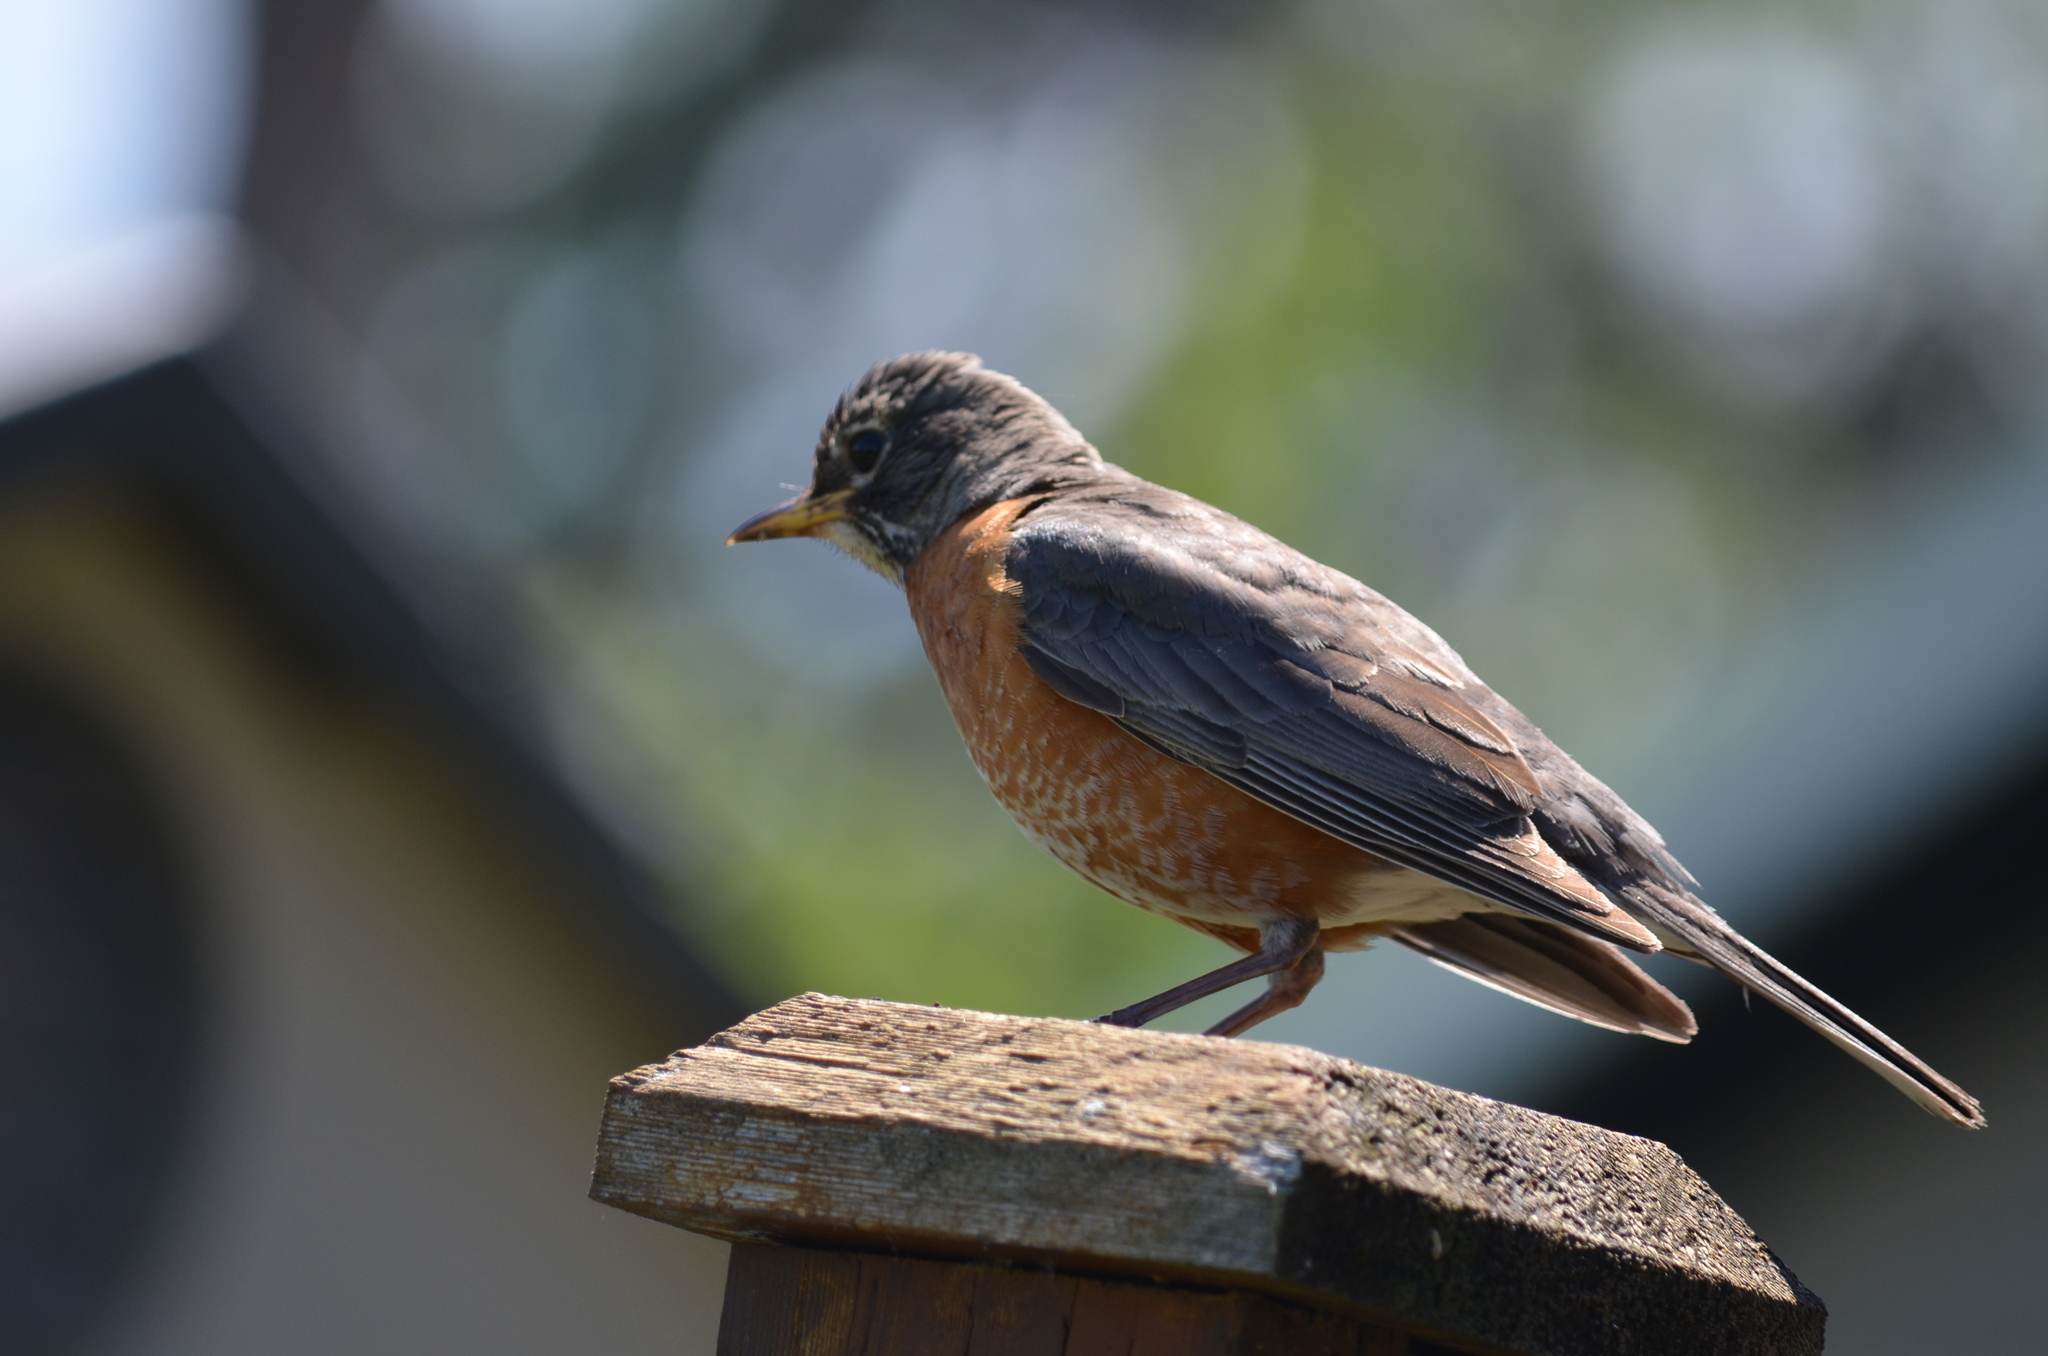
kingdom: Animalia
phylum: Chordata
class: Aves
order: Passeriformes
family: Turdidae
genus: Turdus
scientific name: Turdus migratorius
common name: American robin
